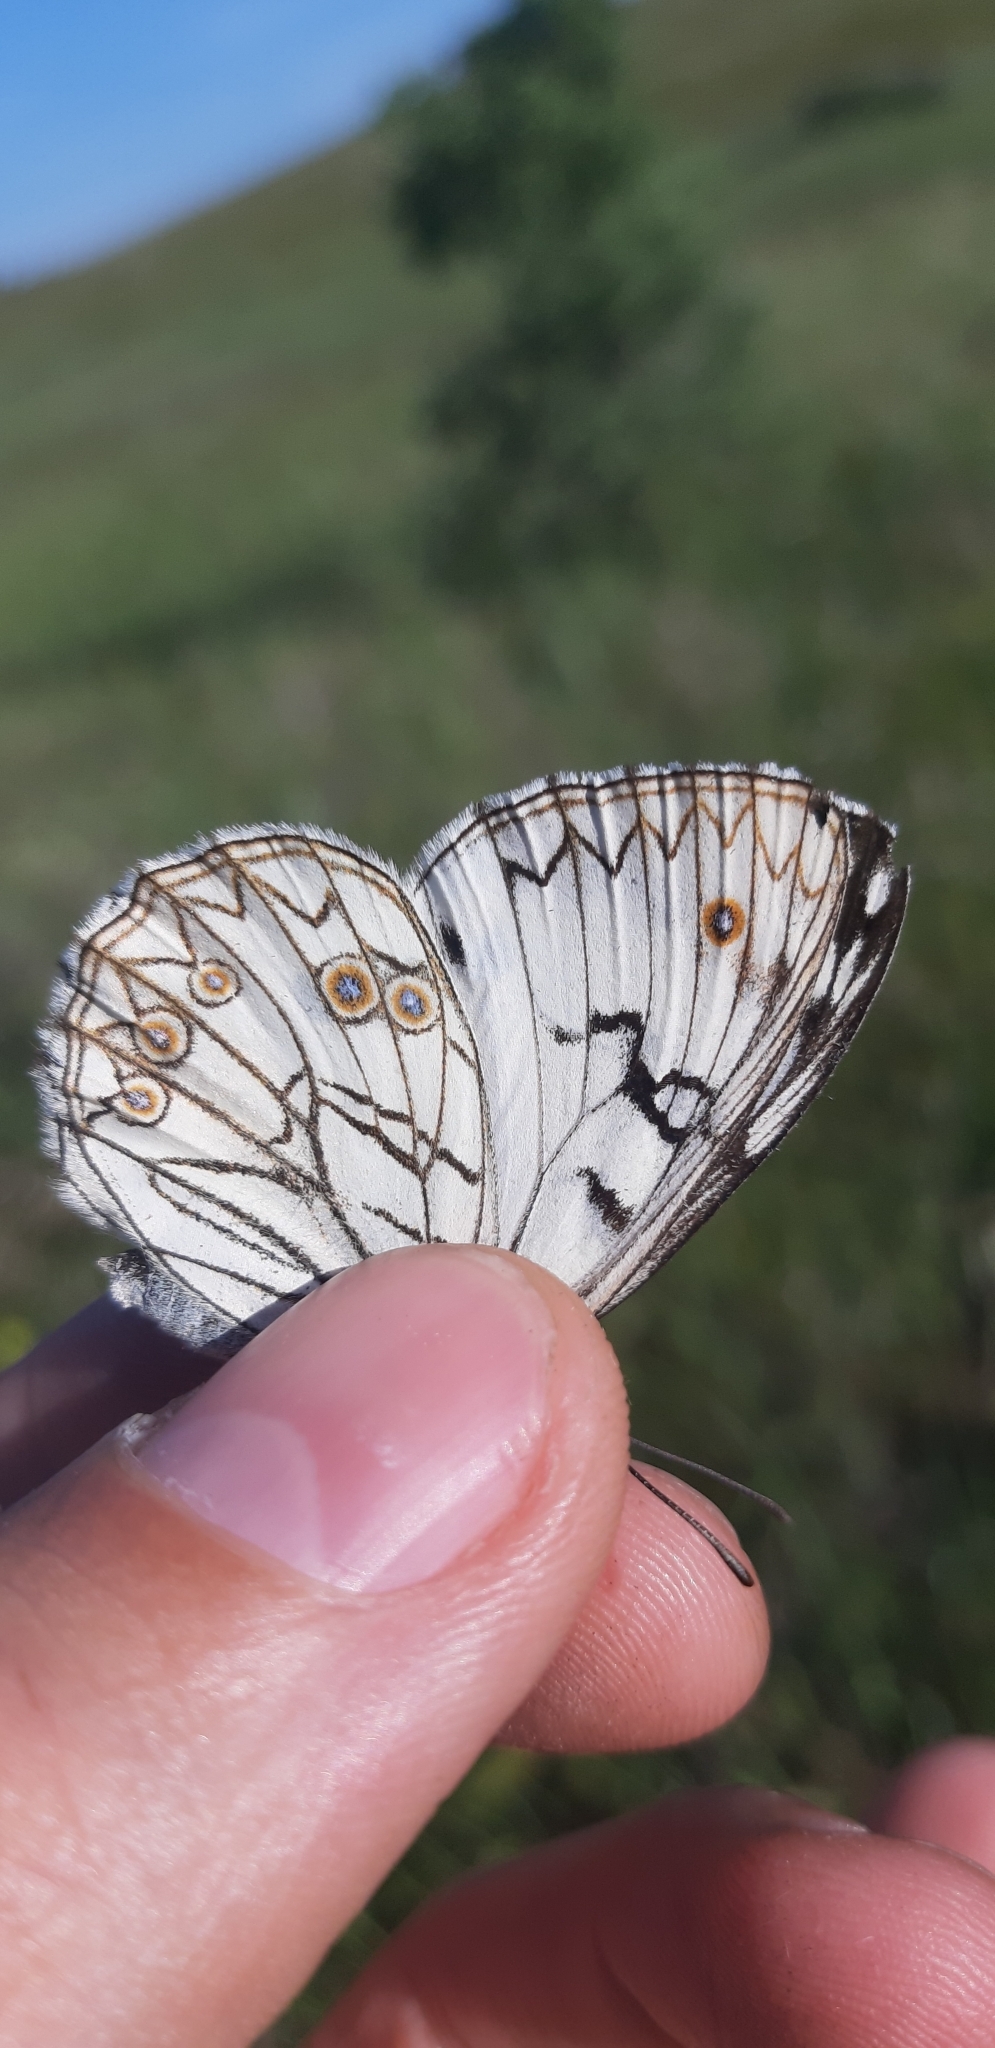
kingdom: Animalia
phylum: Arthropoda
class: Insecta
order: Lepidoptera
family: Nymphalidae
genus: Melanargia
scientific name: Melanargia arge
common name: Italian marbled white
